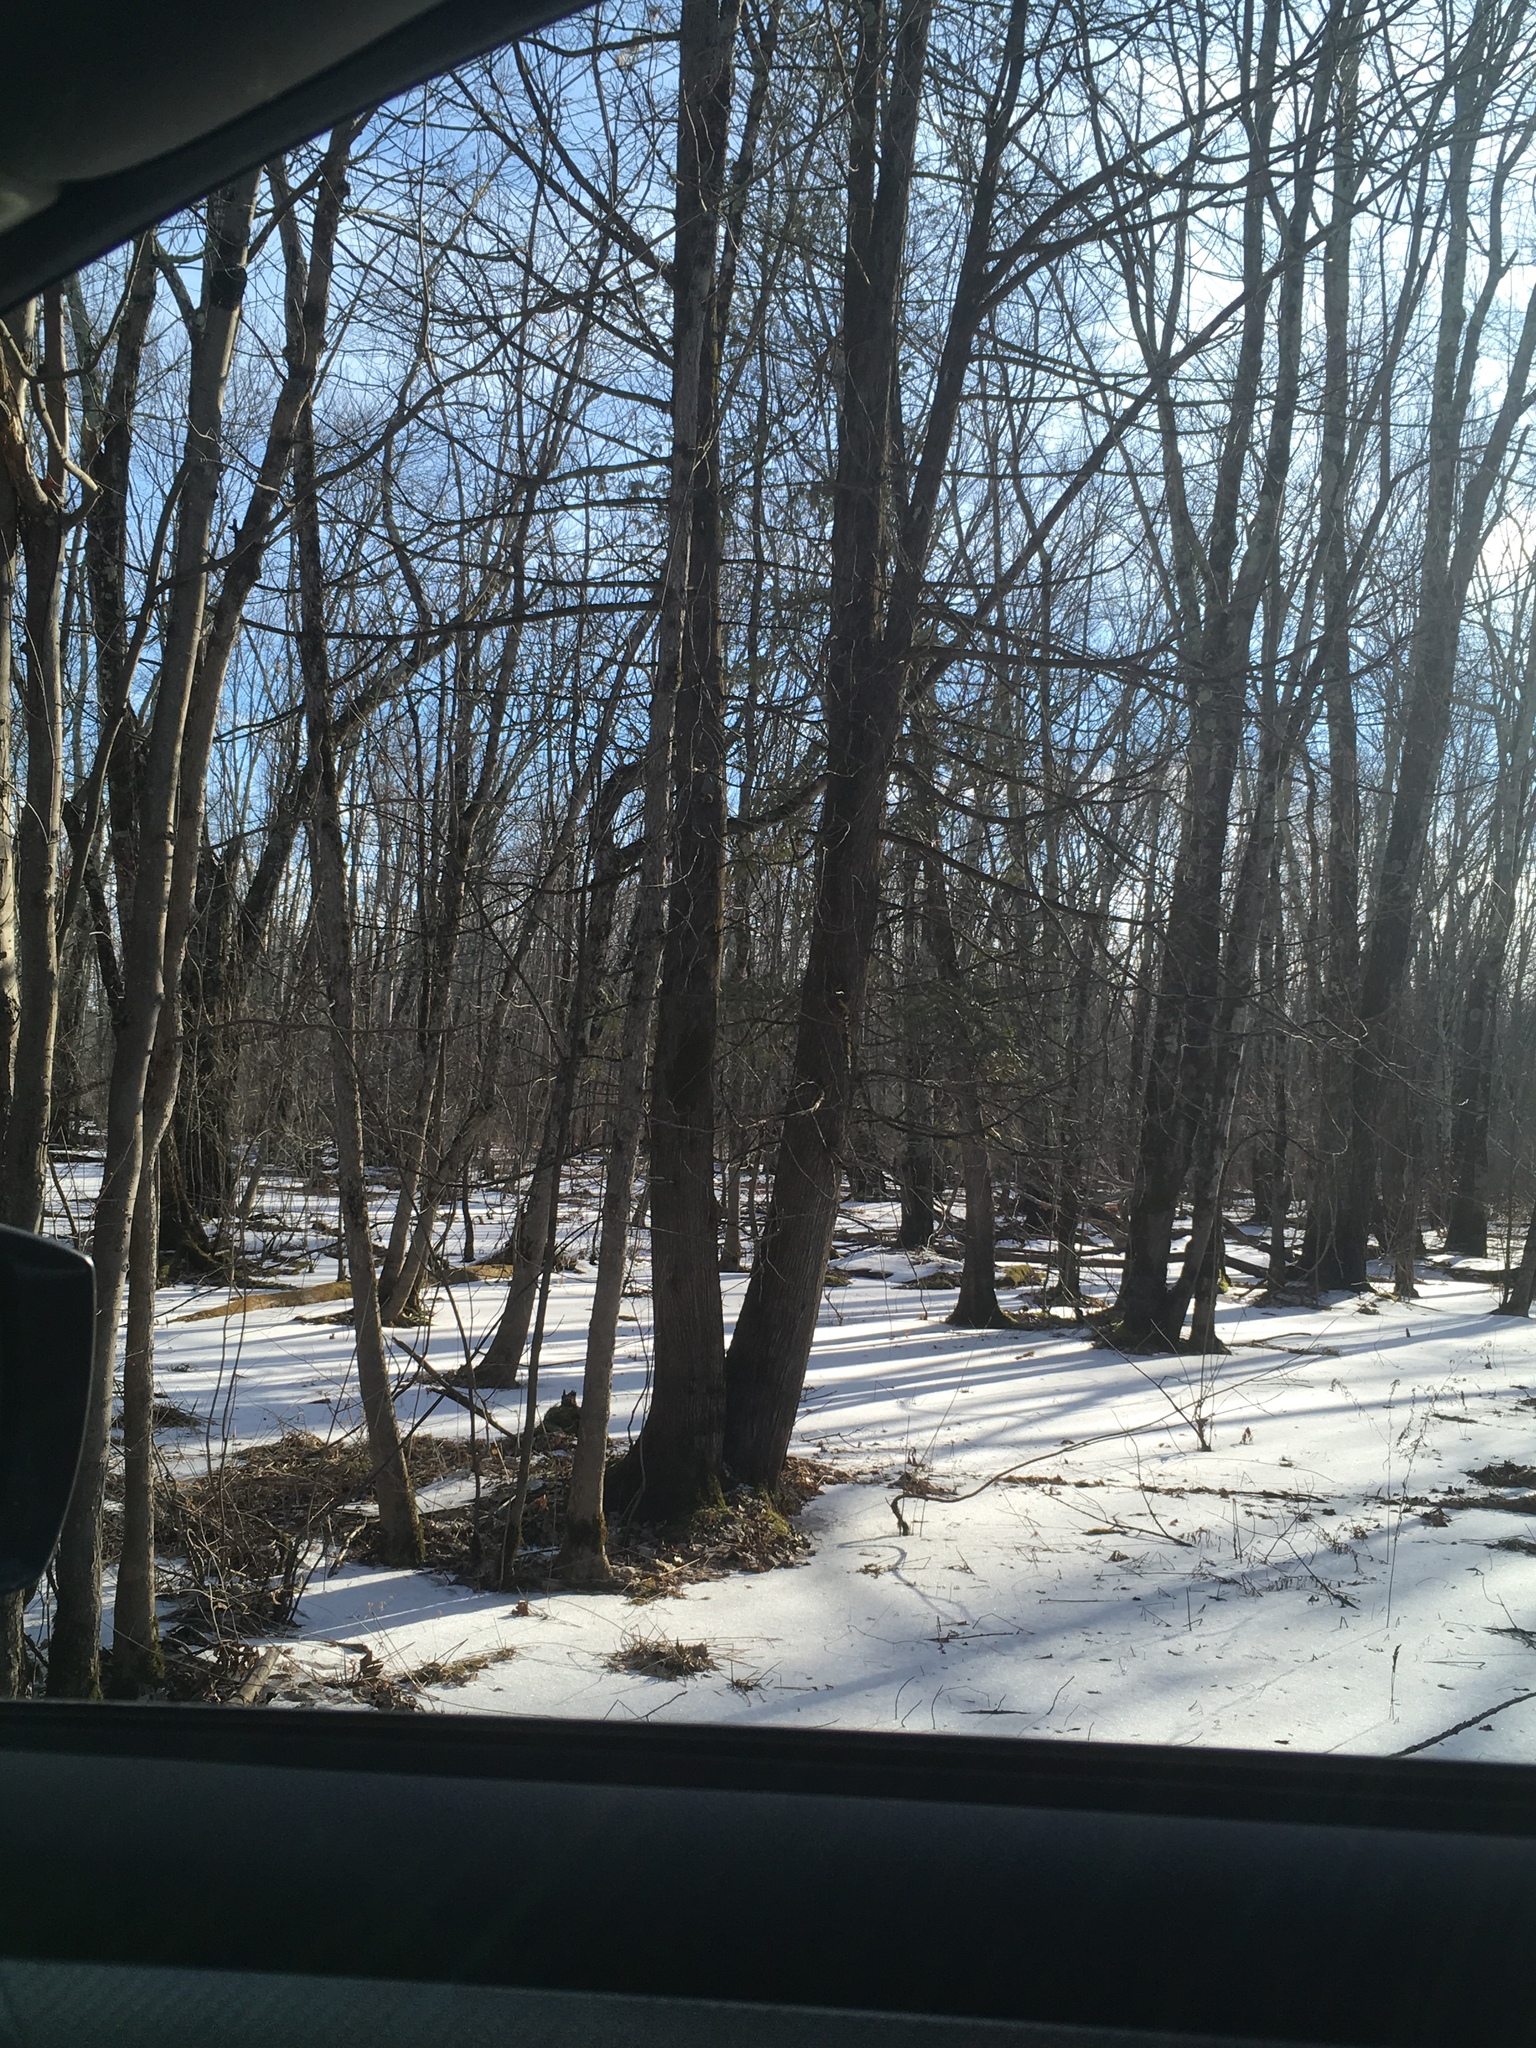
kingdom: Plantae
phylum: Tracheophyta
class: Pinopsida
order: Pinales
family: Cupressaceae
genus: Thuja
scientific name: Thuja occidentalis
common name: Northern white-cedar
